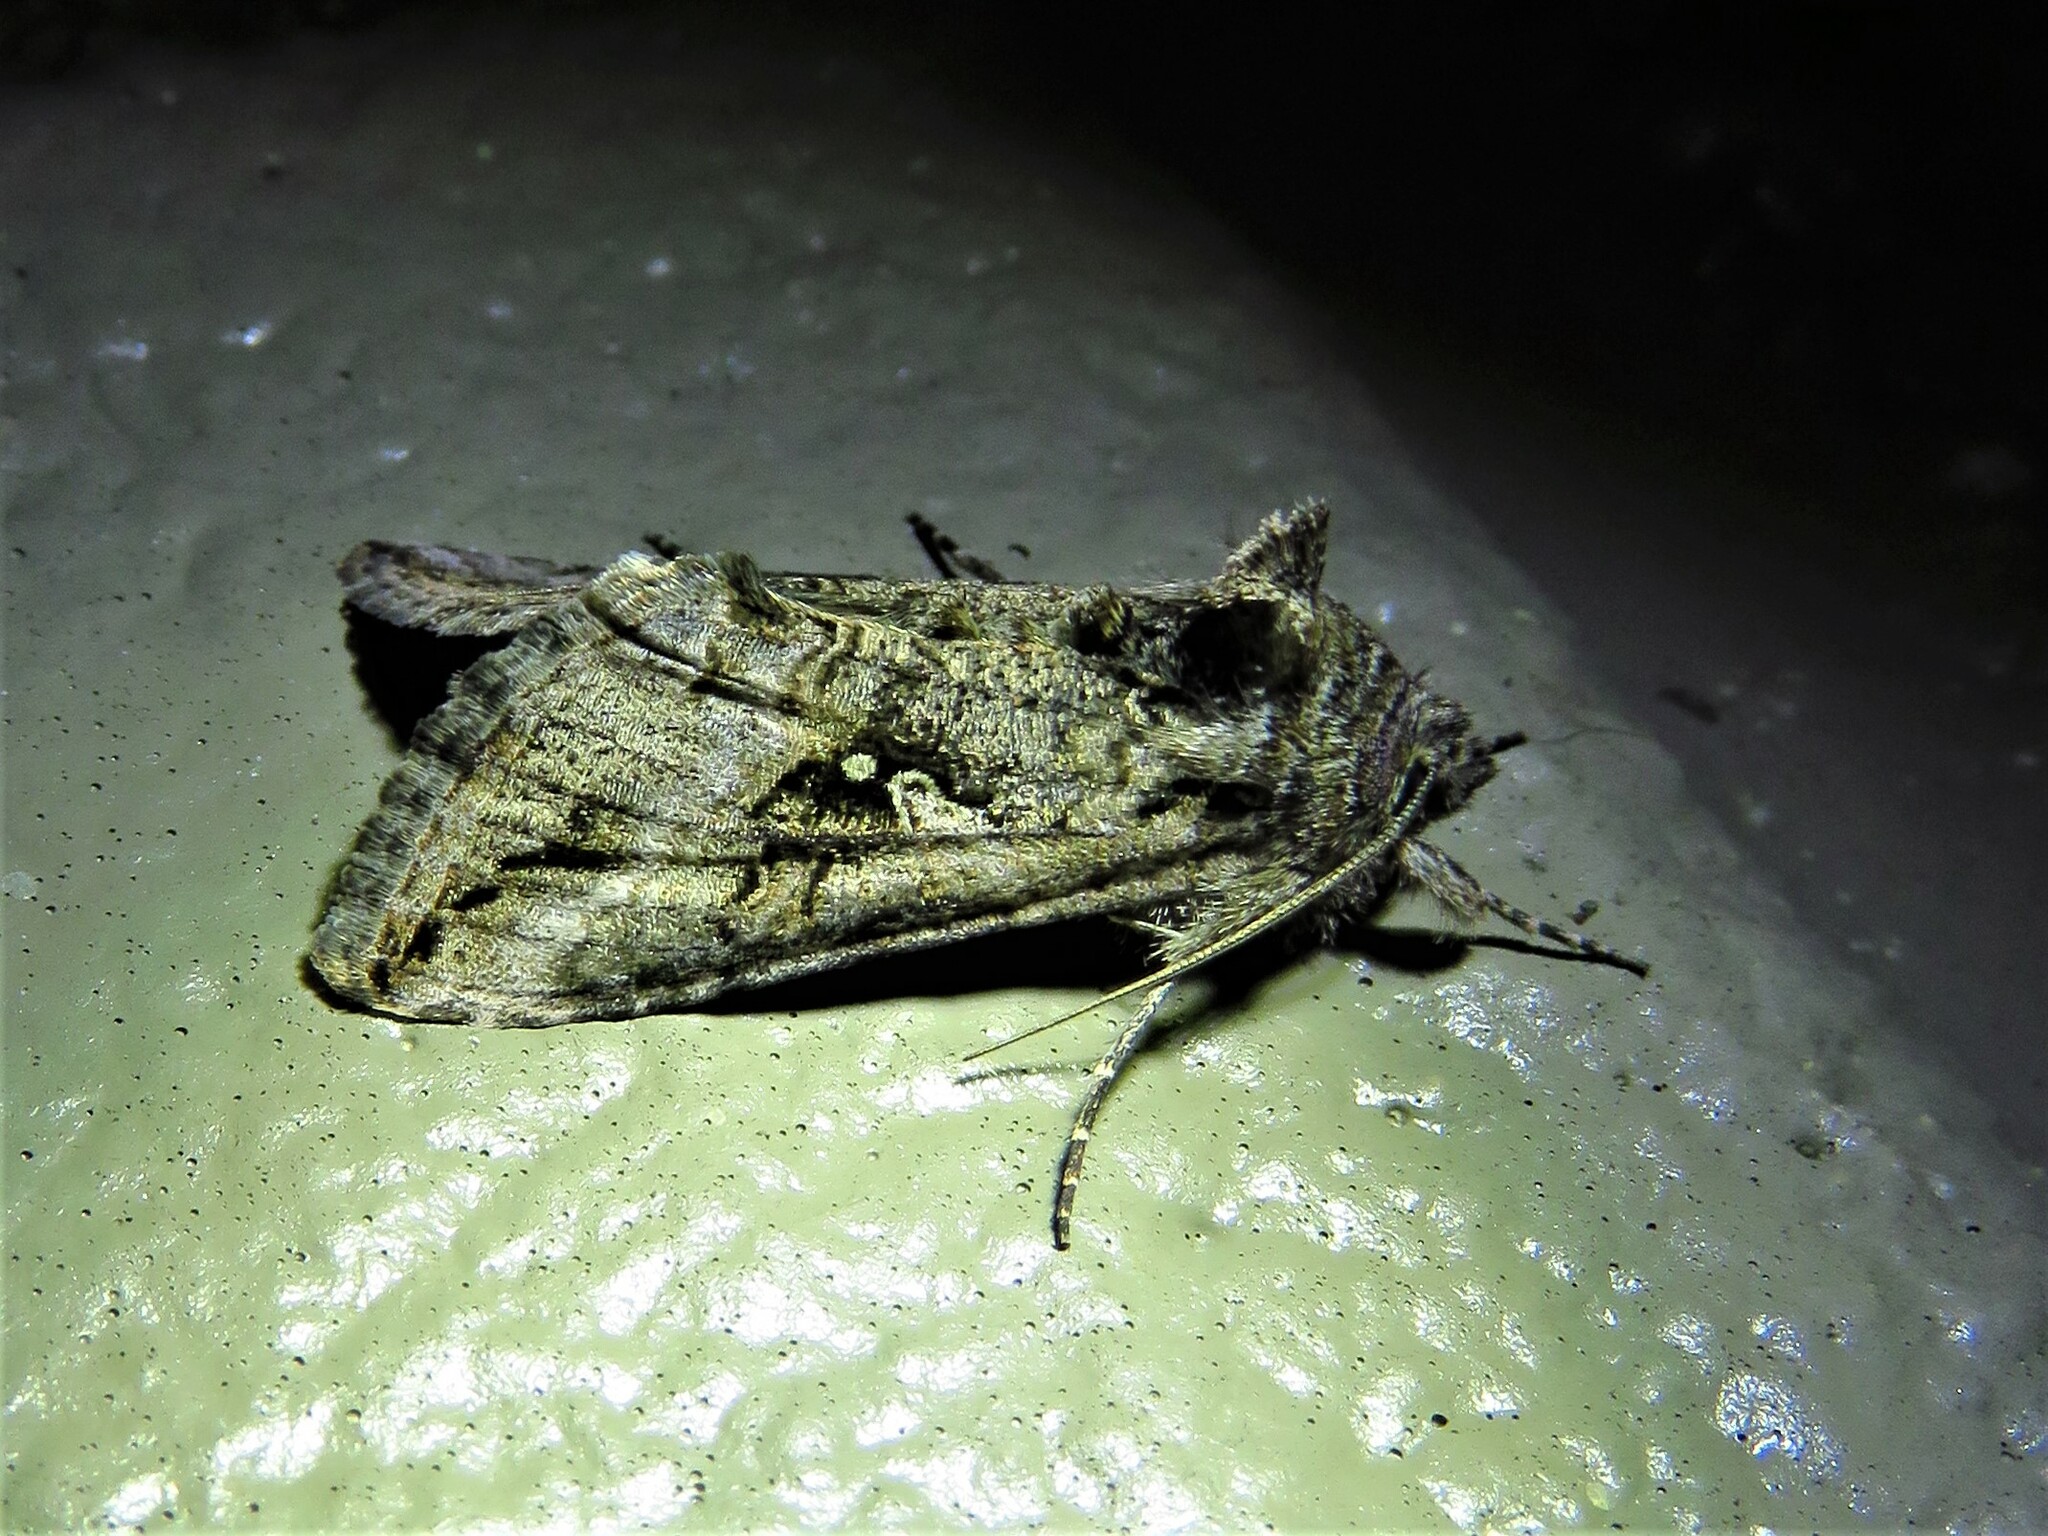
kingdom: Animalia
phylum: Arthropoda
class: Insecta
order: Lepidoptera
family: Noctuidae
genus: Rachiplusia
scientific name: Rachiplusia ou
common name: Gray looper moth
